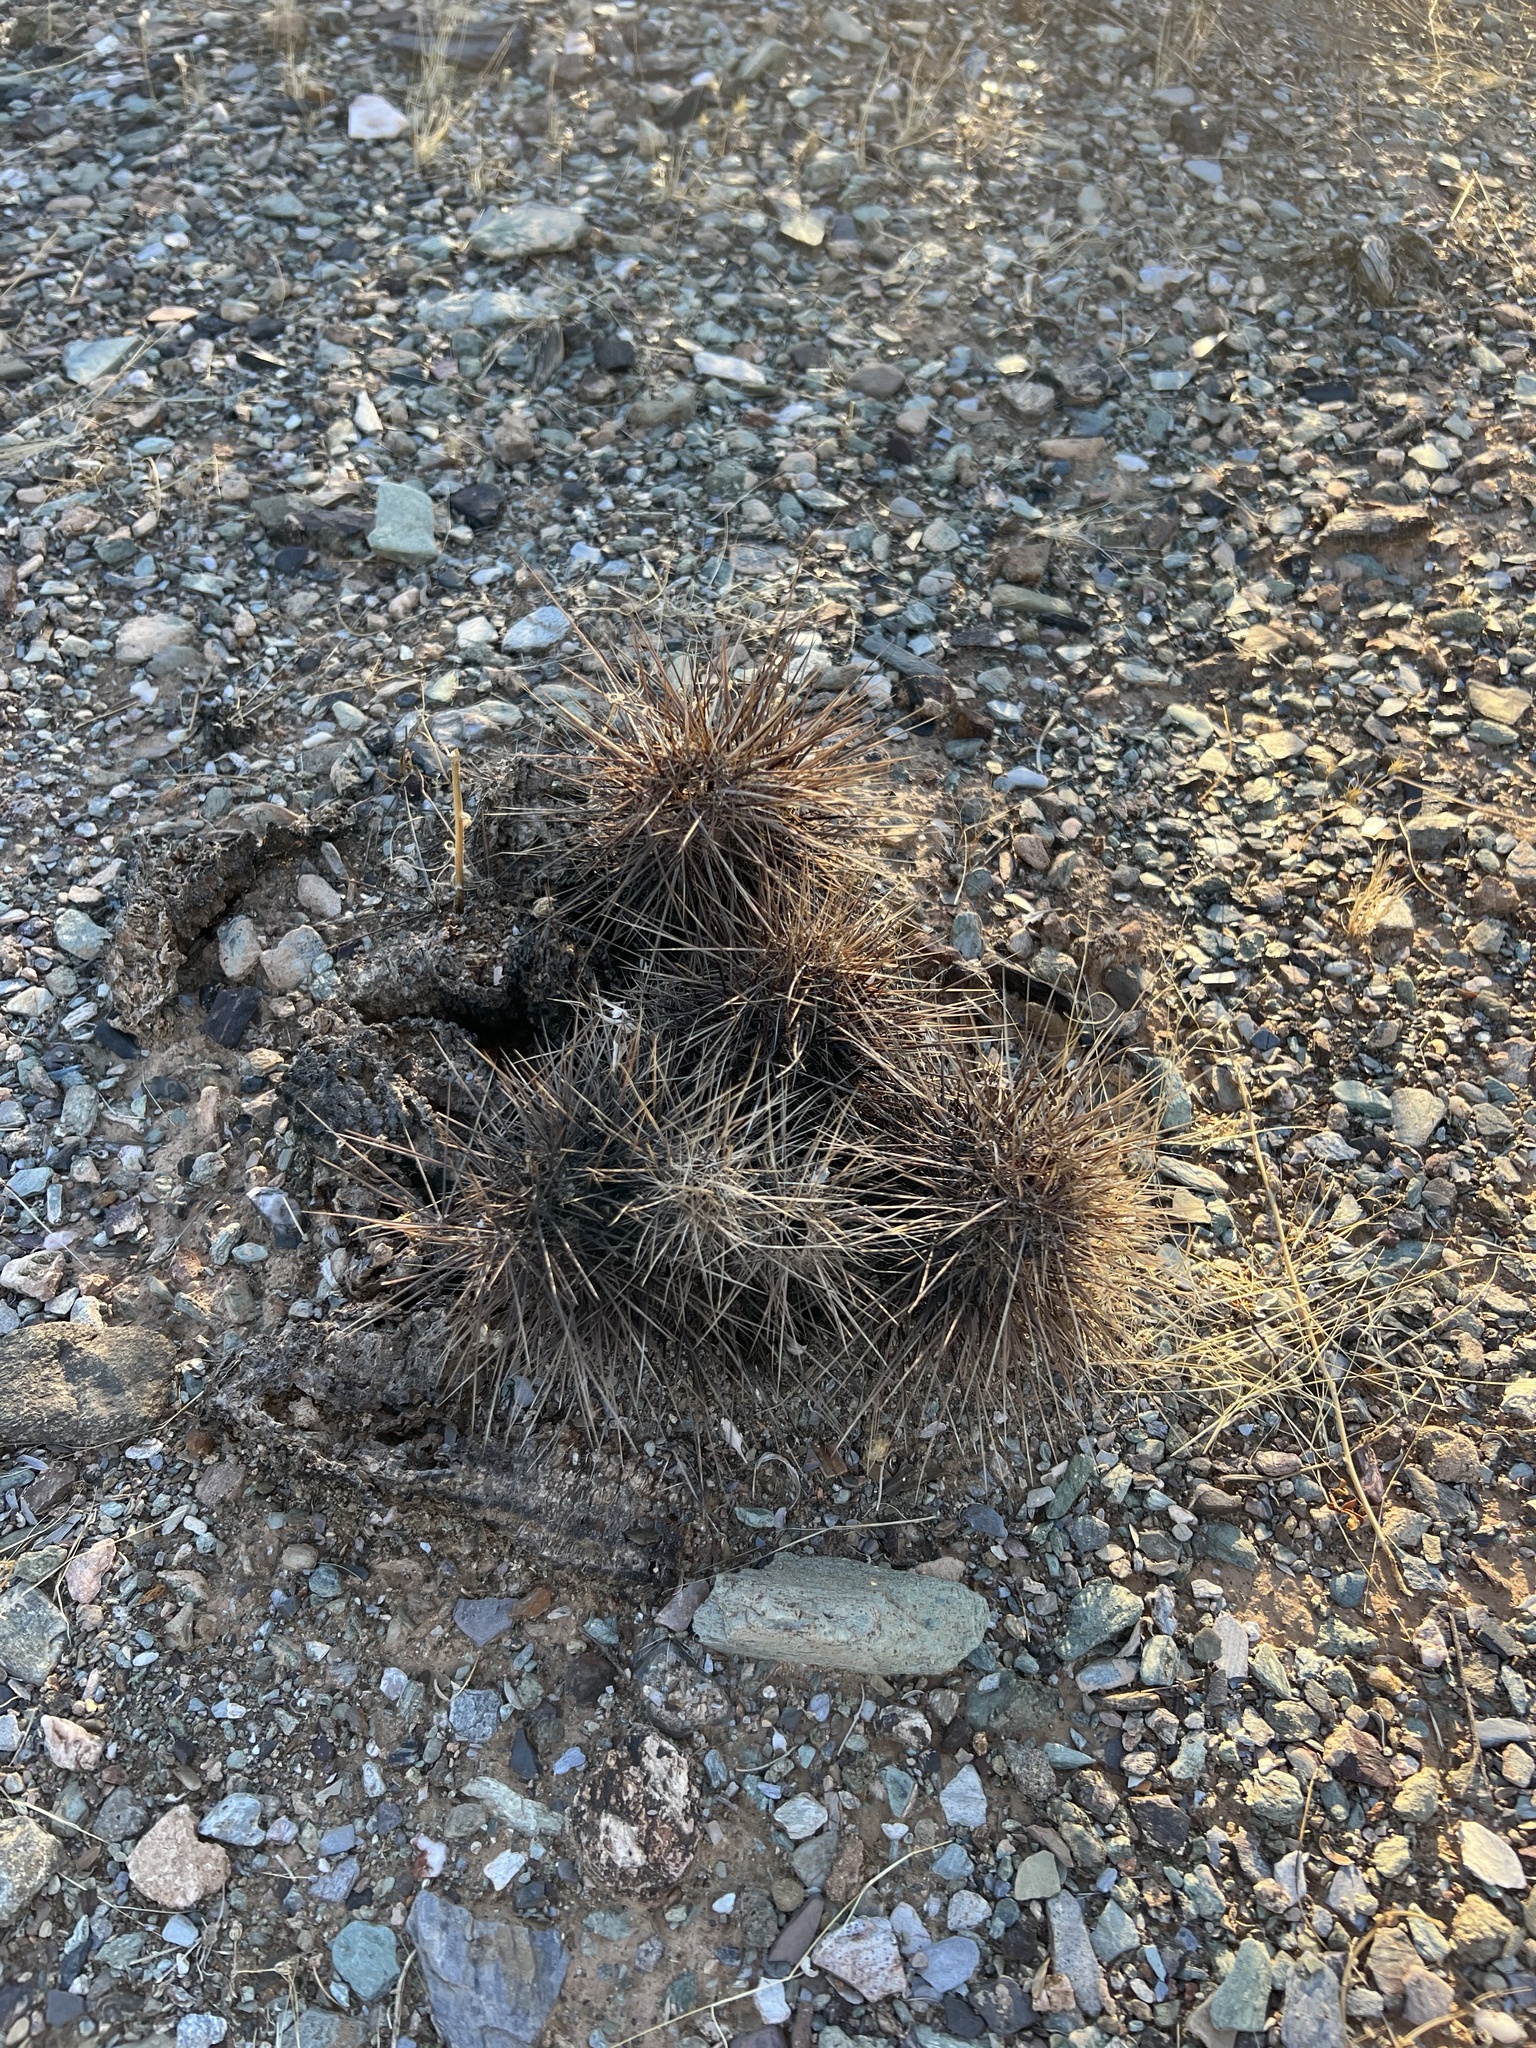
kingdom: Plantae
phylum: Tracheophyta
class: Magnoliopsida
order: Caryophyllales
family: Cactaceae
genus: Echinocereus
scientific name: Echinocereus engelmannii
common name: Engelmann's hedgehog cactus
